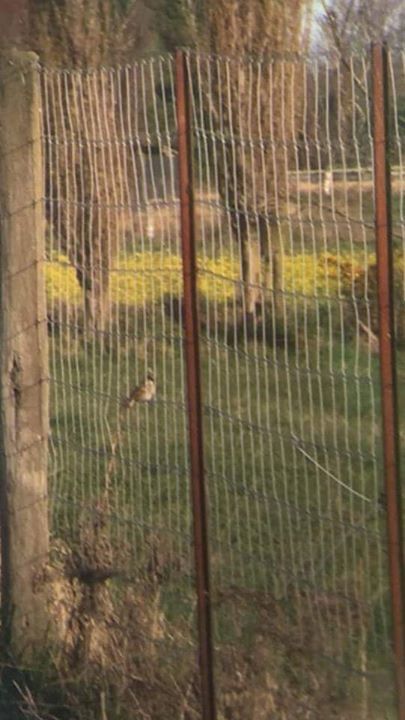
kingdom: Animalia
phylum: Chordata
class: Aves
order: Passeriformes
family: Passeridae
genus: Passer
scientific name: Passer domesticus
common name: House sparrow
